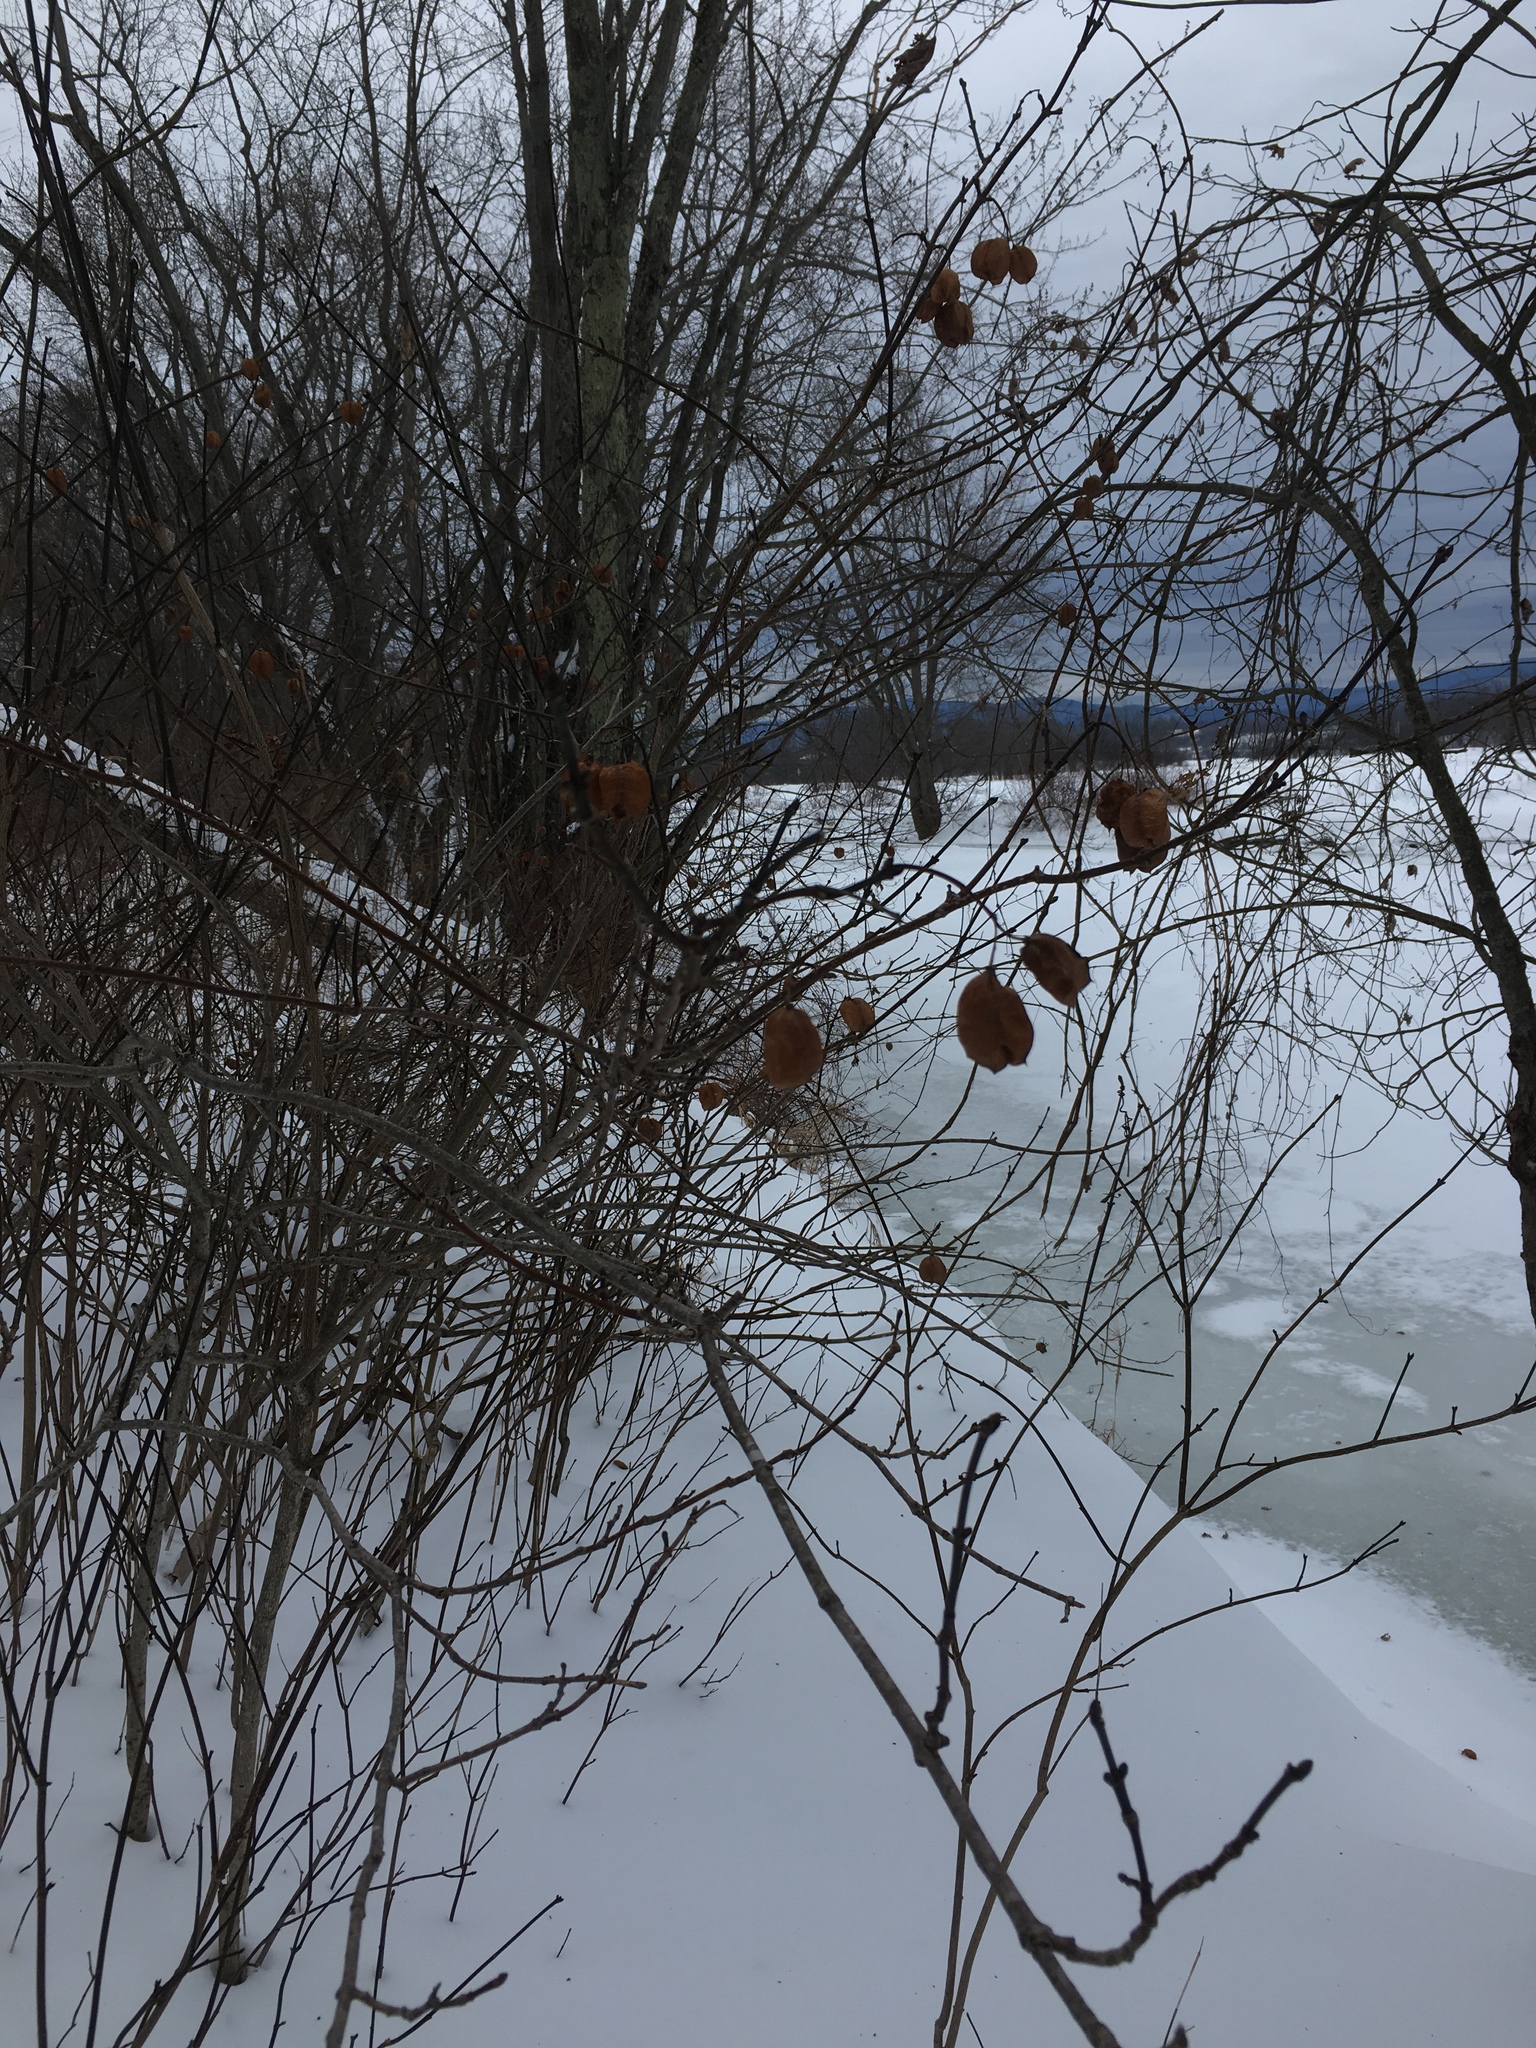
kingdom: Plantae
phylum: Tracheophyta
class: Magnoliopsida
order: Crossosomatales
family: Staphyleaceae
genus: Staphylea
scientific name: Staphylea trifolia
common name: American bladdernut
